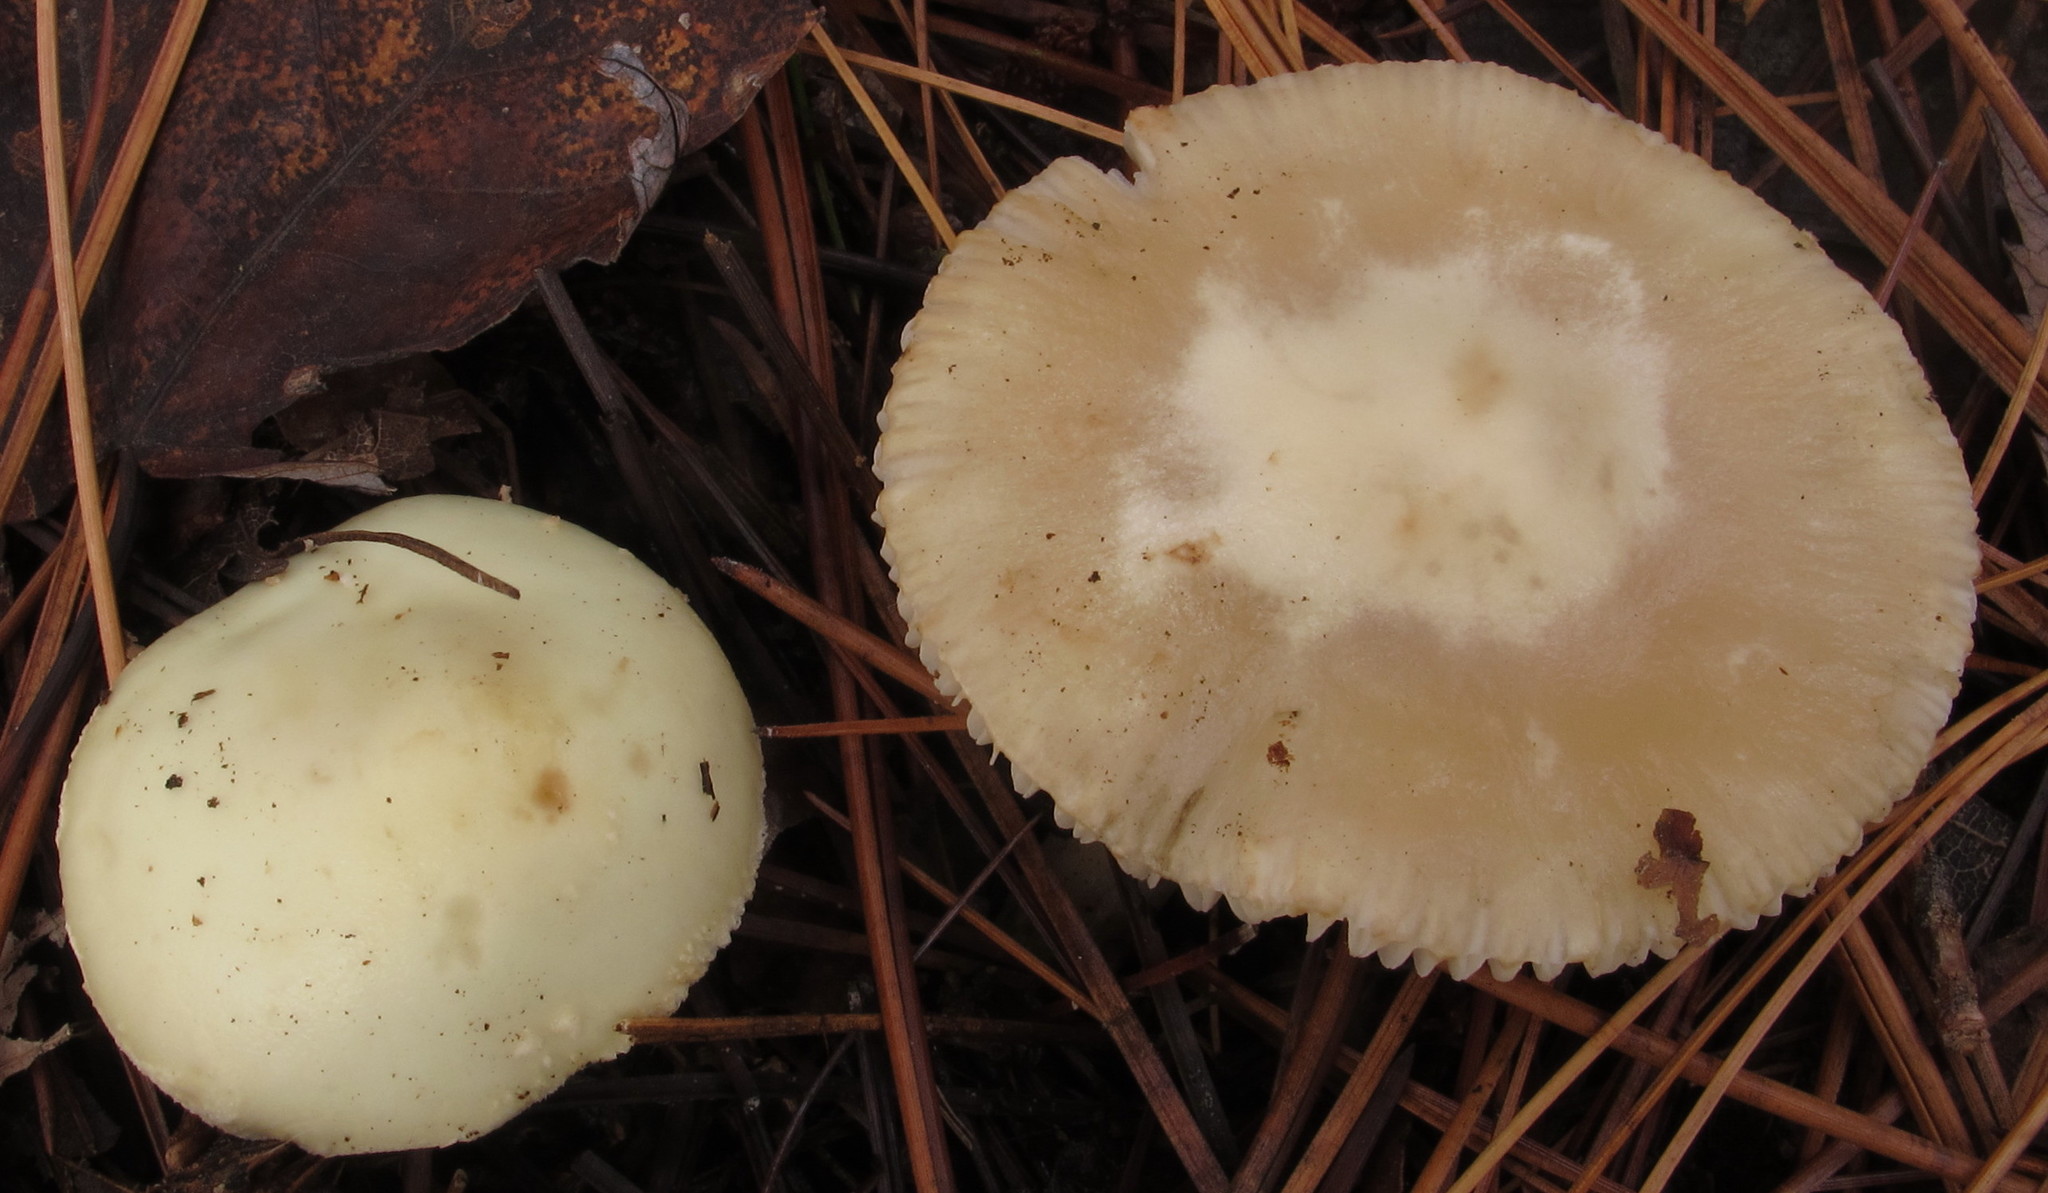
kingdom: Fungi
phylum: Basidiomycota
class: Agaricomycetes
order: Agaricales
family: Amanitaceae
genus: Amanita
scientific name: Amanita citrina
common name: False death-cap
